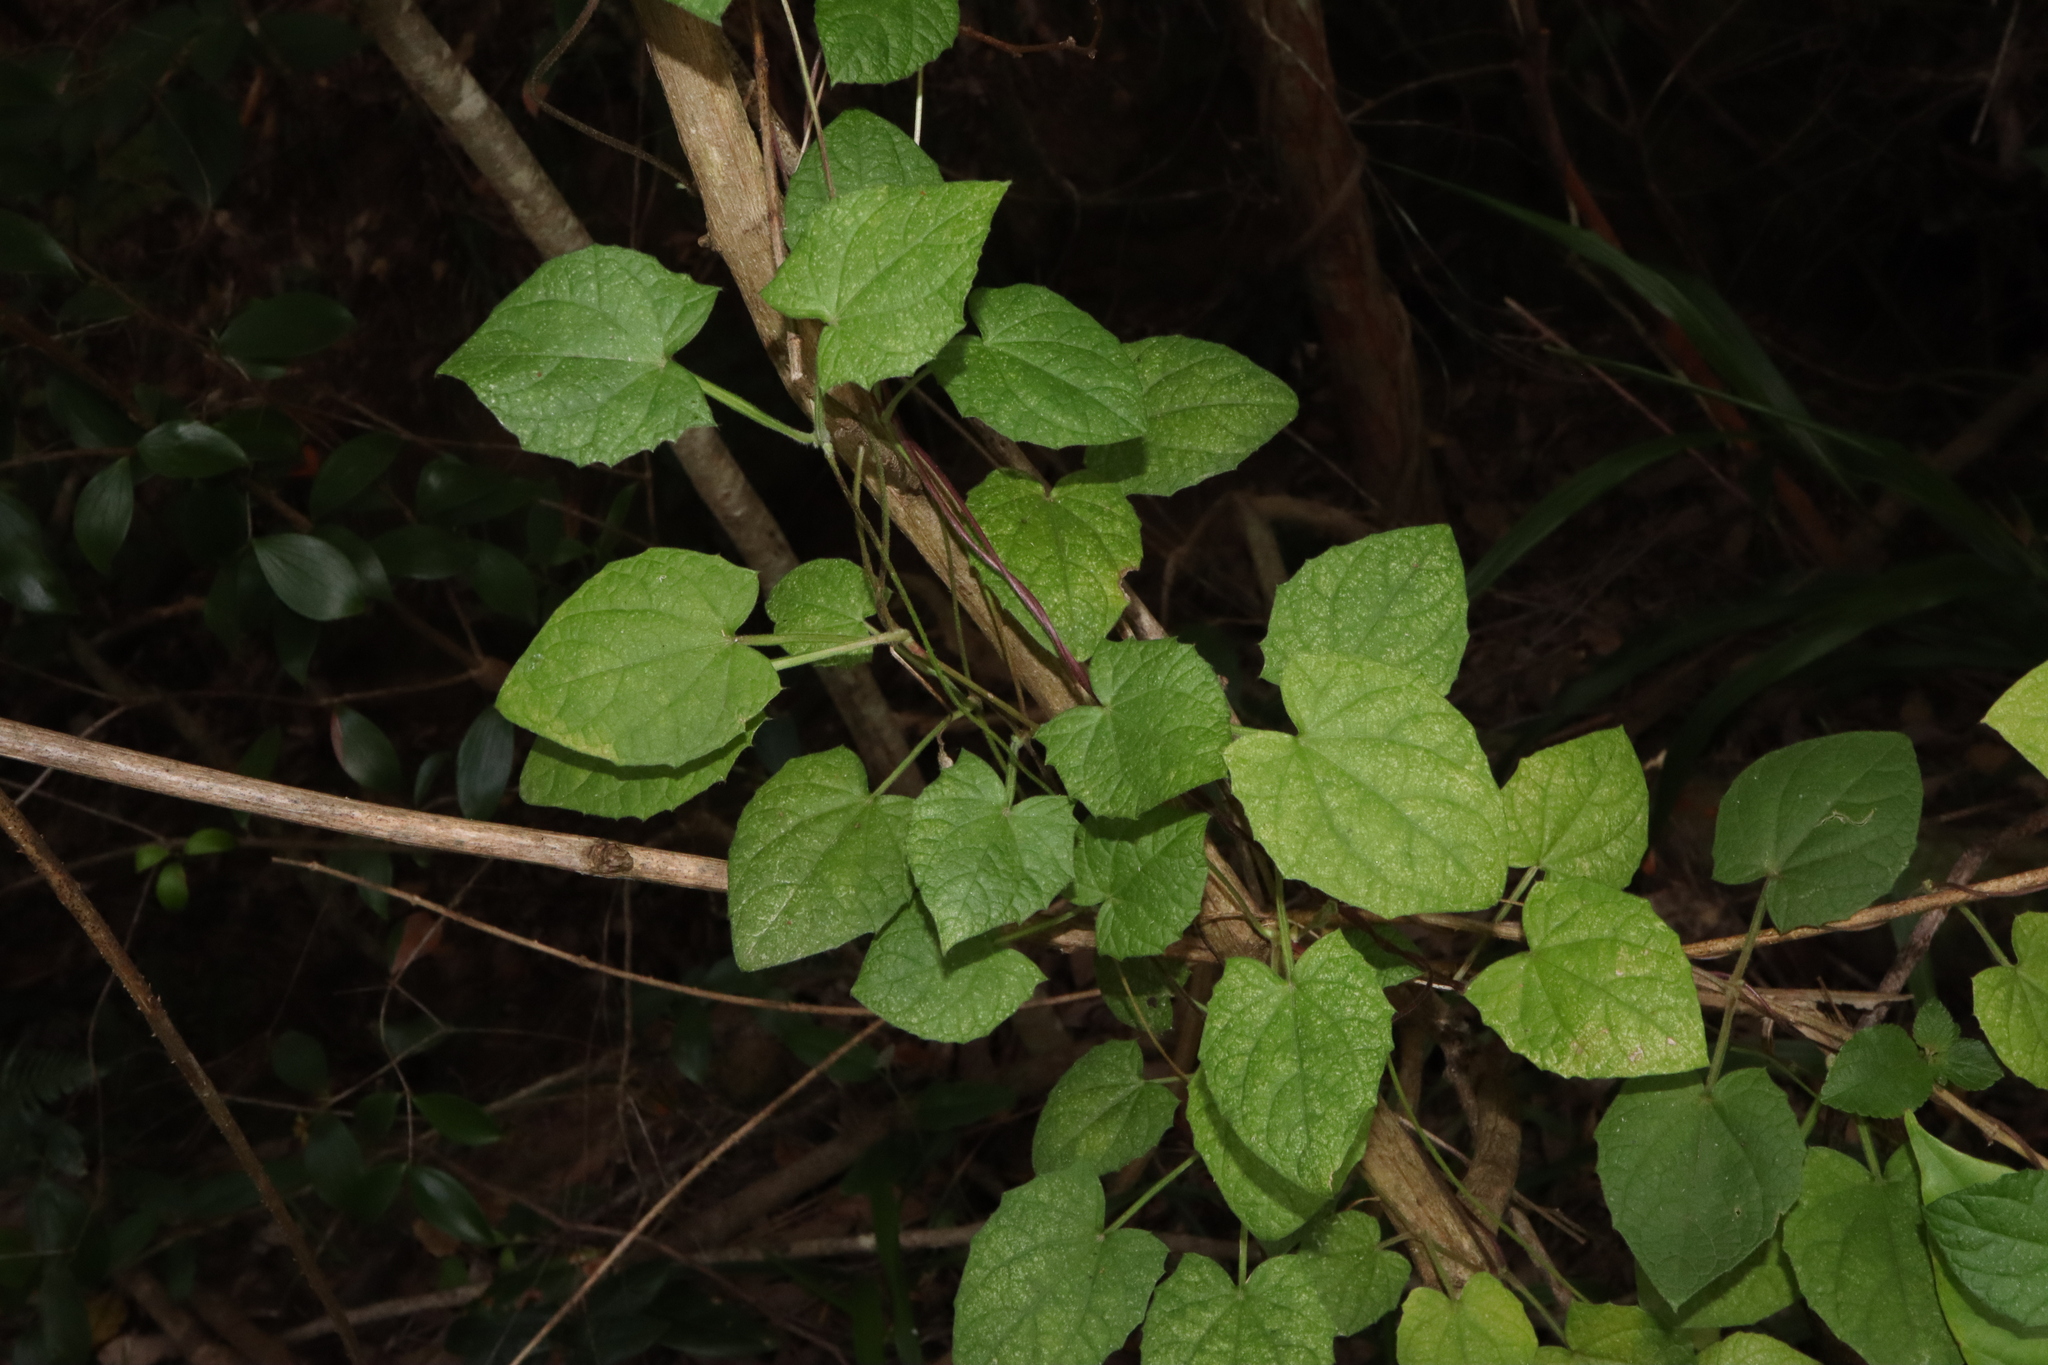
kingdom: Plantae
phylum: Tracheophyta
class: Magnoliopsida
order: Lamiales
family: Acanthaceae
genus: Thunbergia
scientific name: Thunbergia alata
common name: Blackeyed susan vine
